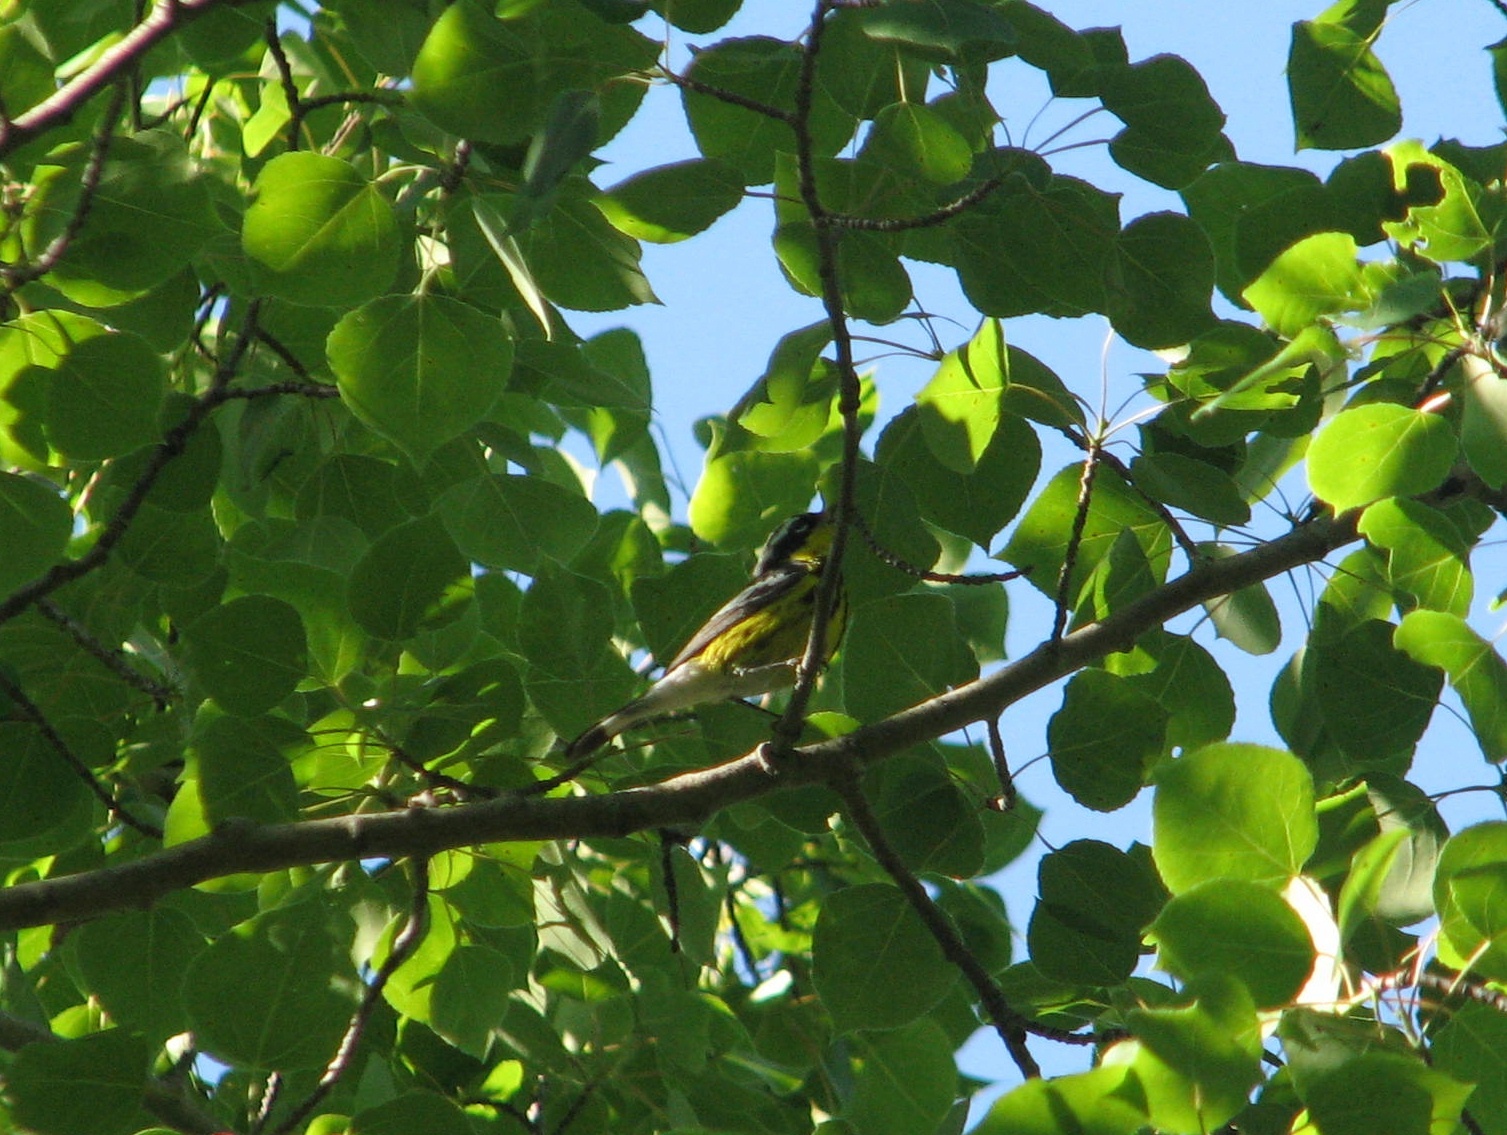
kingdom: Animalia
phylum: Chordata
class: Aves
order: Passeriformes
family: Parulidae
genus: Setophaga
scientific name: Setophaga magnolia
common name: Magnolia warbler
